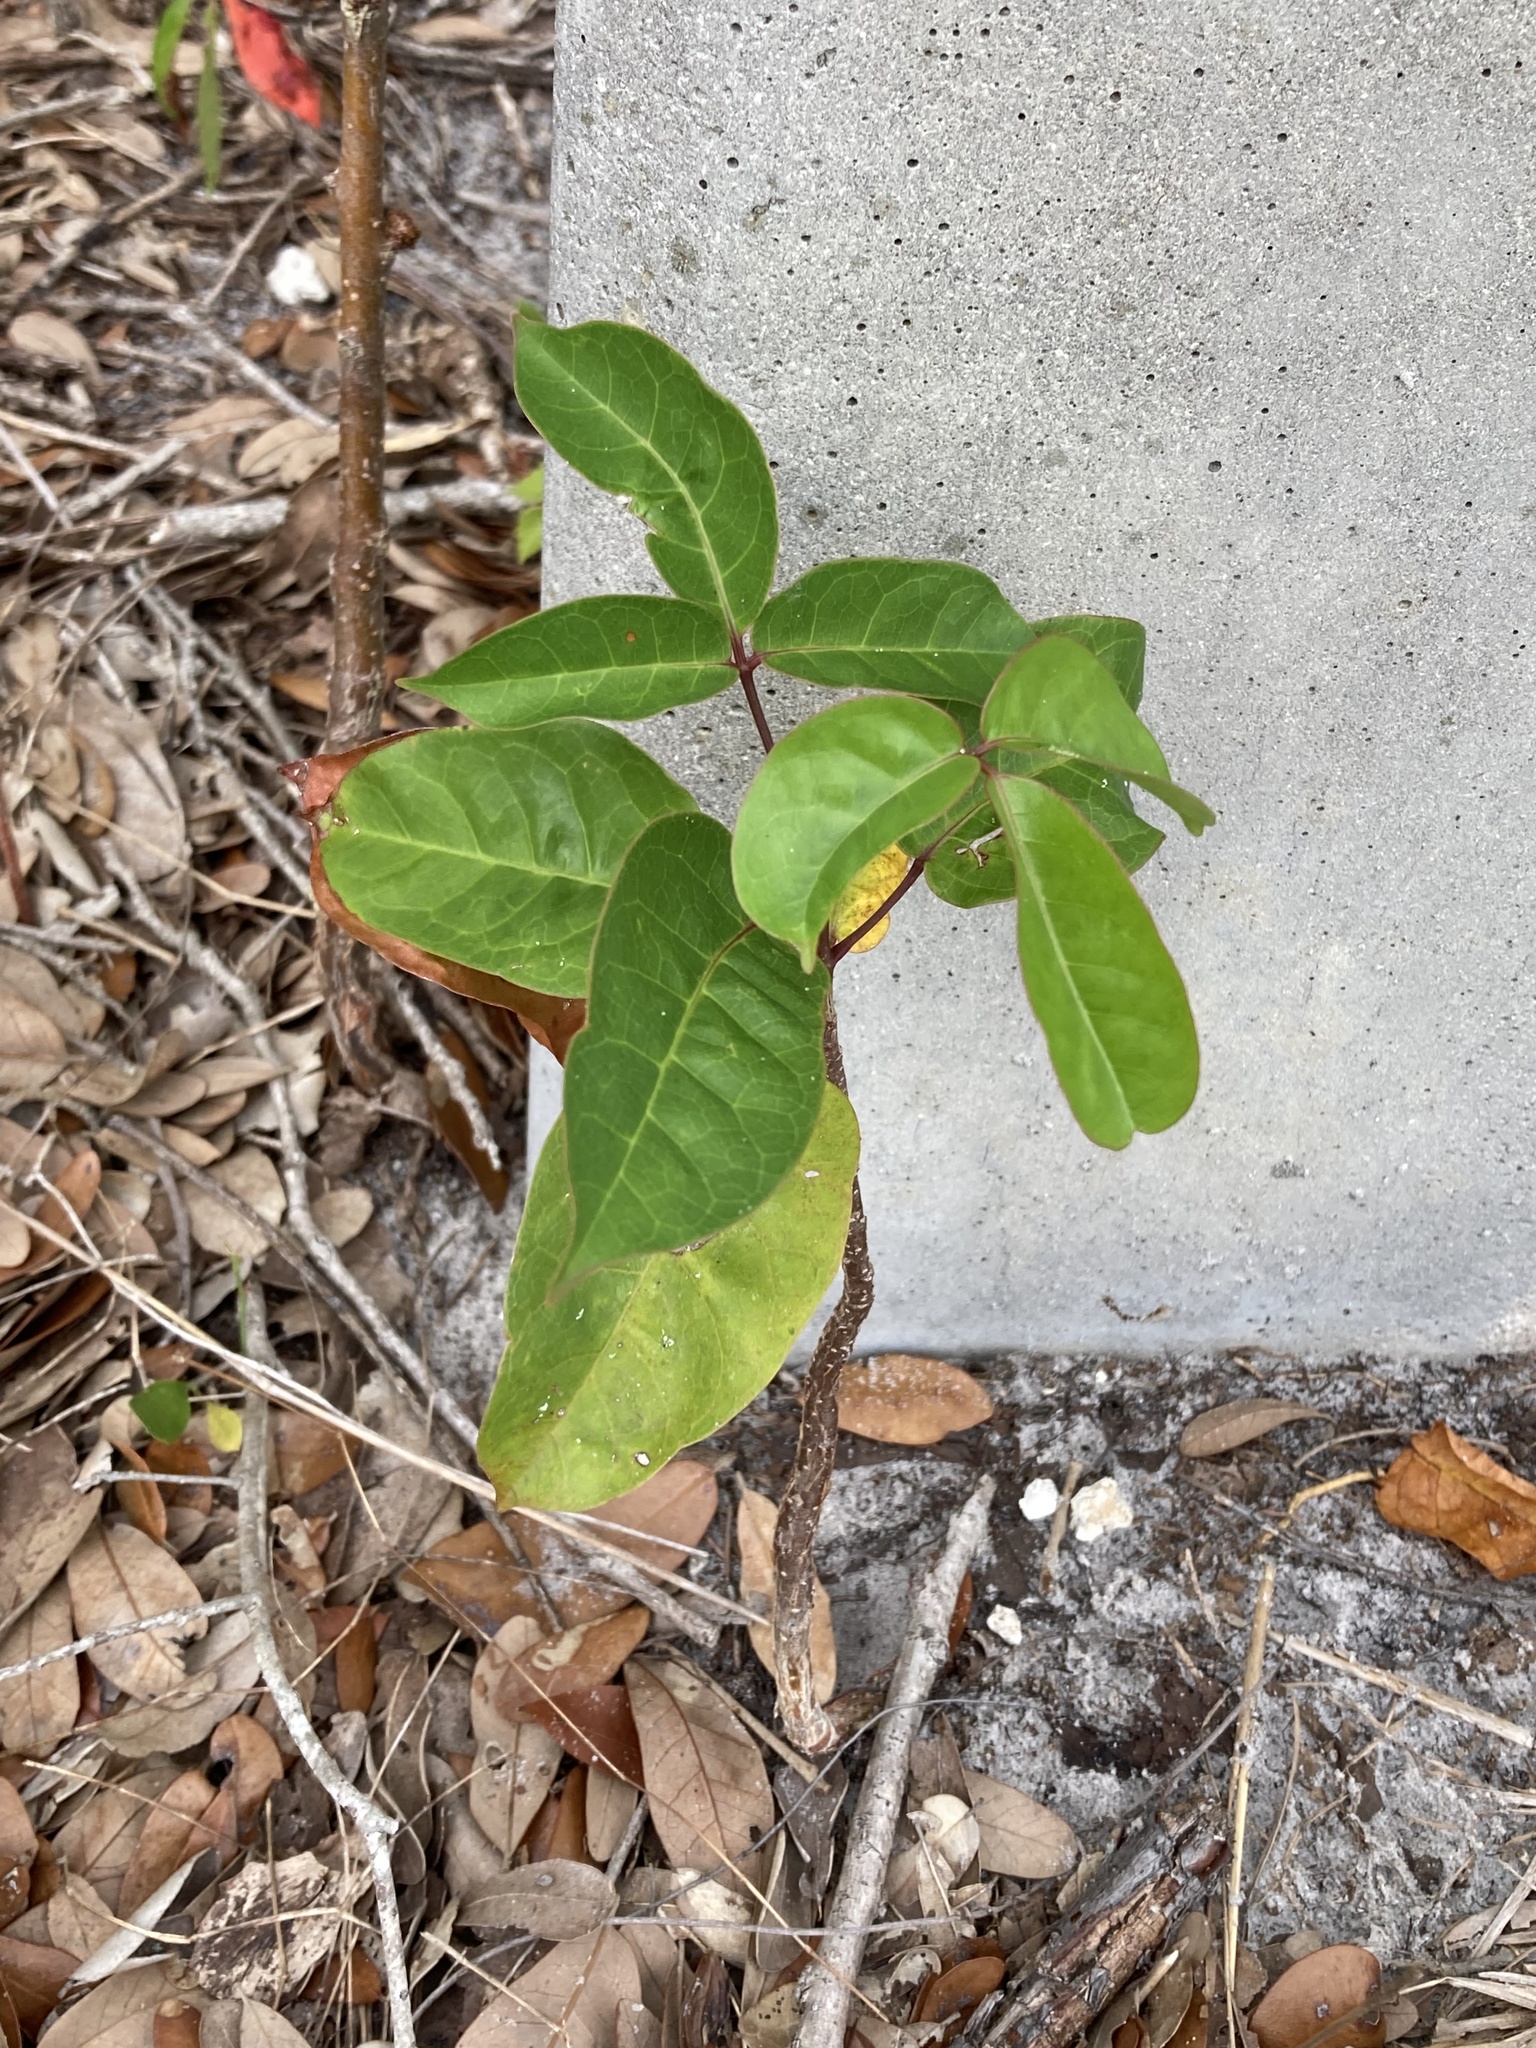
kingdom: Plantae
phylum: Tracheophyta
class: Magnoliopsida
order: Sapindales
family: Burseraceae
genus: Bursera
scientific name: Bursera simaruba
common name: Turpentine tree
